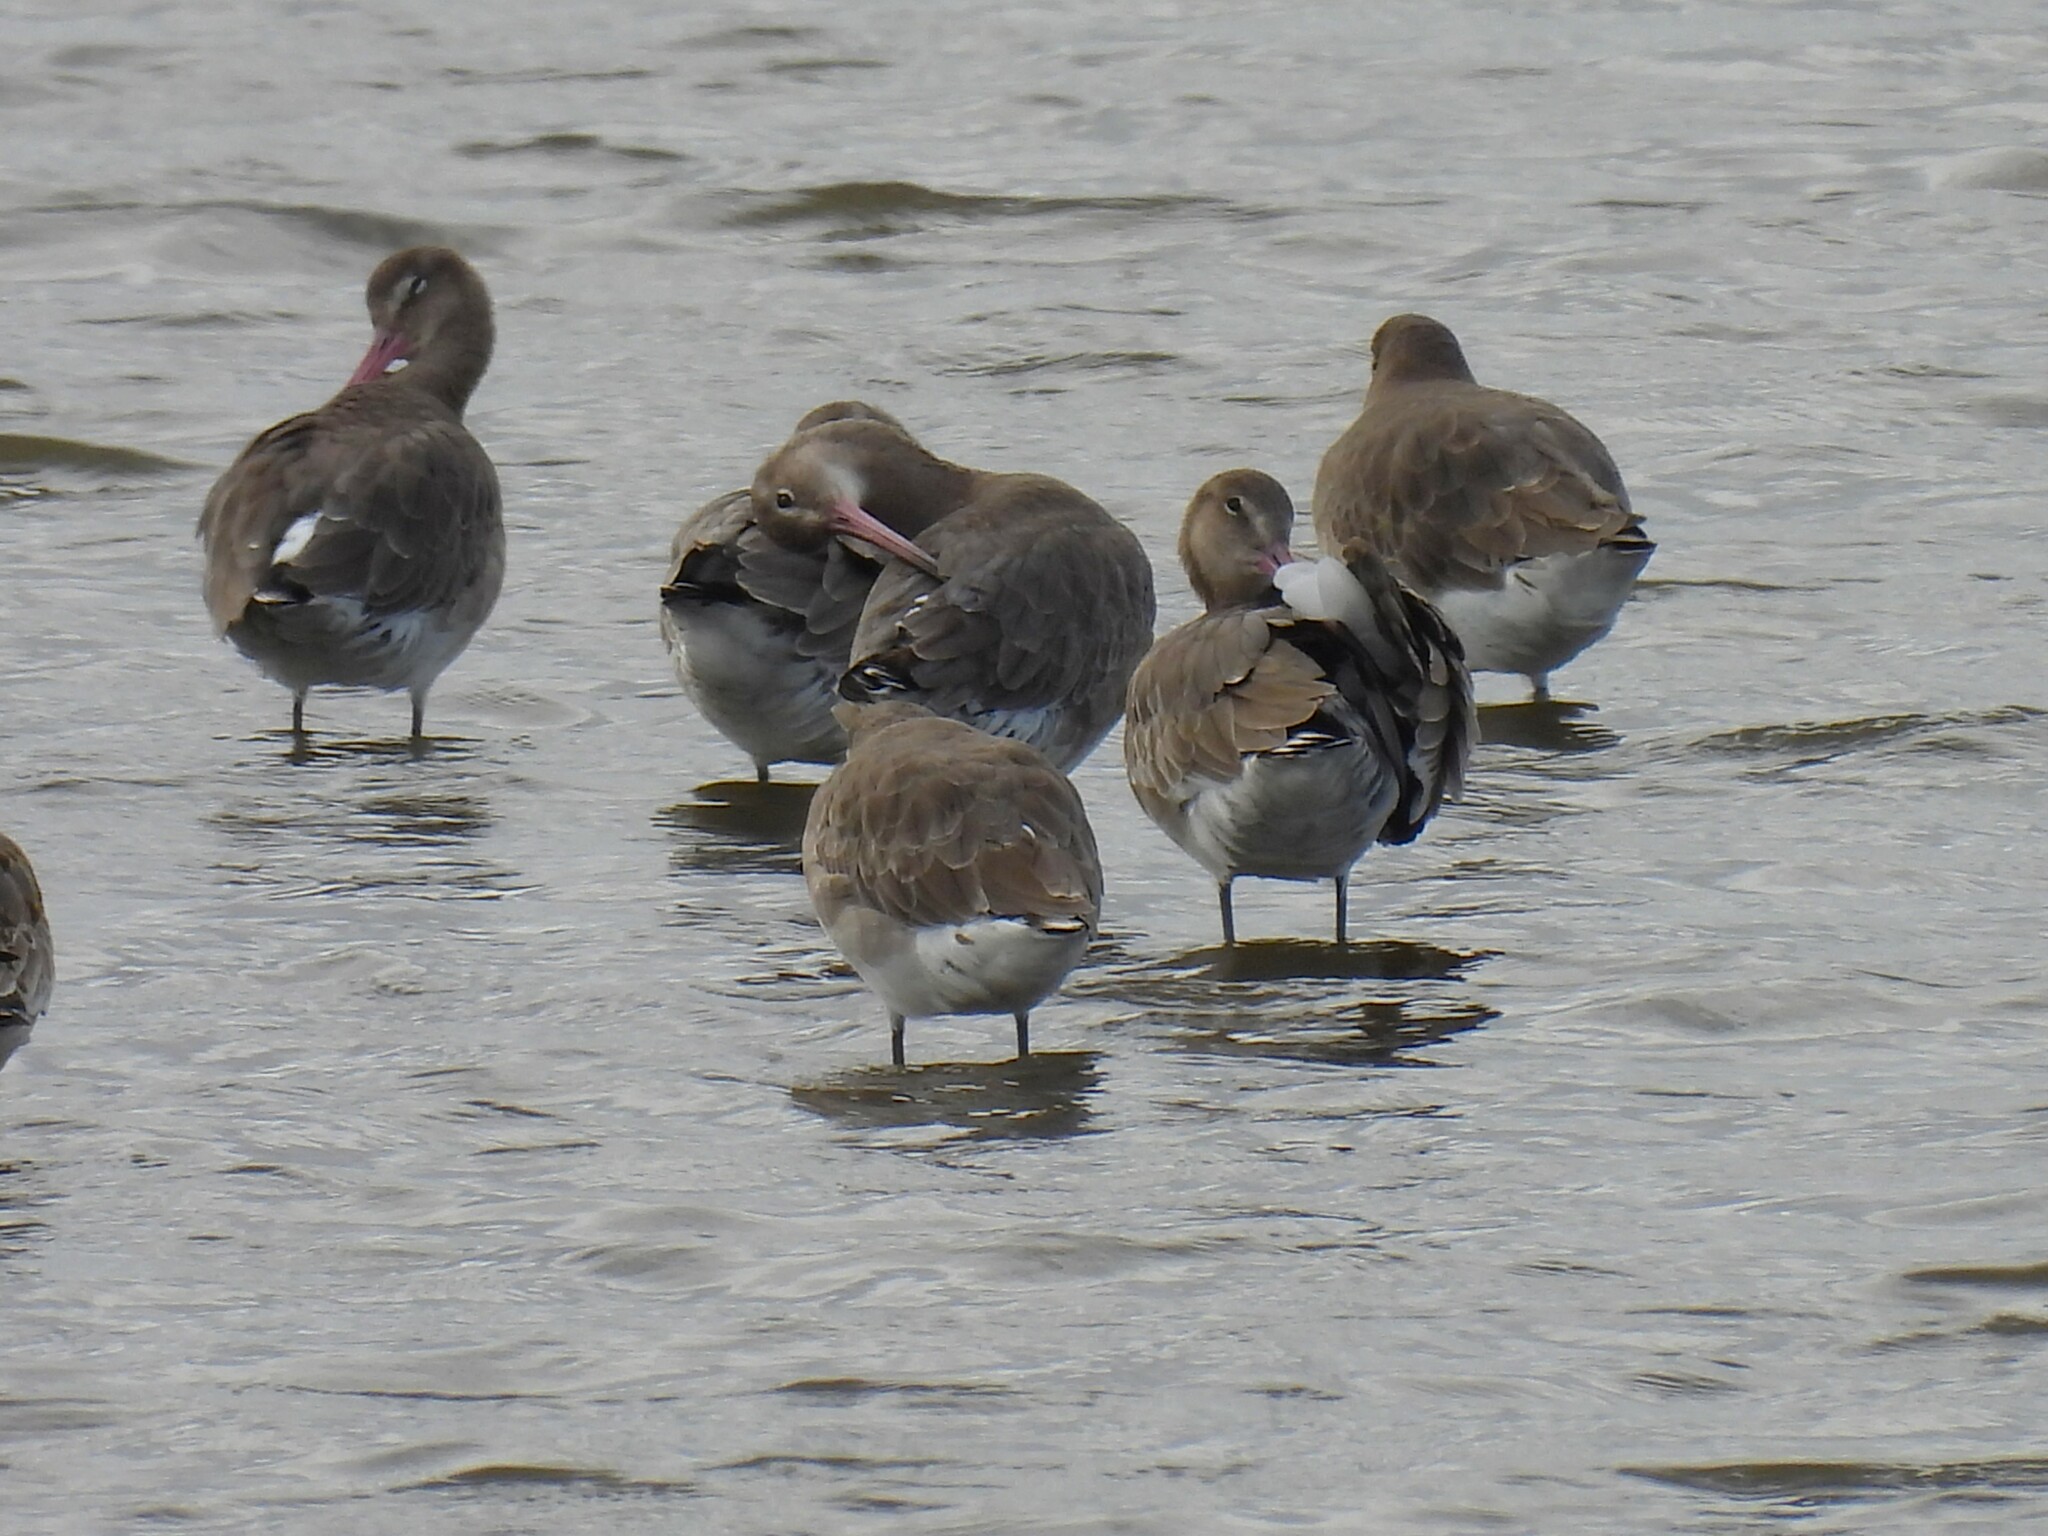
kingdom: Animalia
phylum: Chordata
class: Aves
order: Charadriiformes
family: Scolopacidae
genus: Limosa
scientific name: Limosa limosa
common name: Black-tailed godwit
